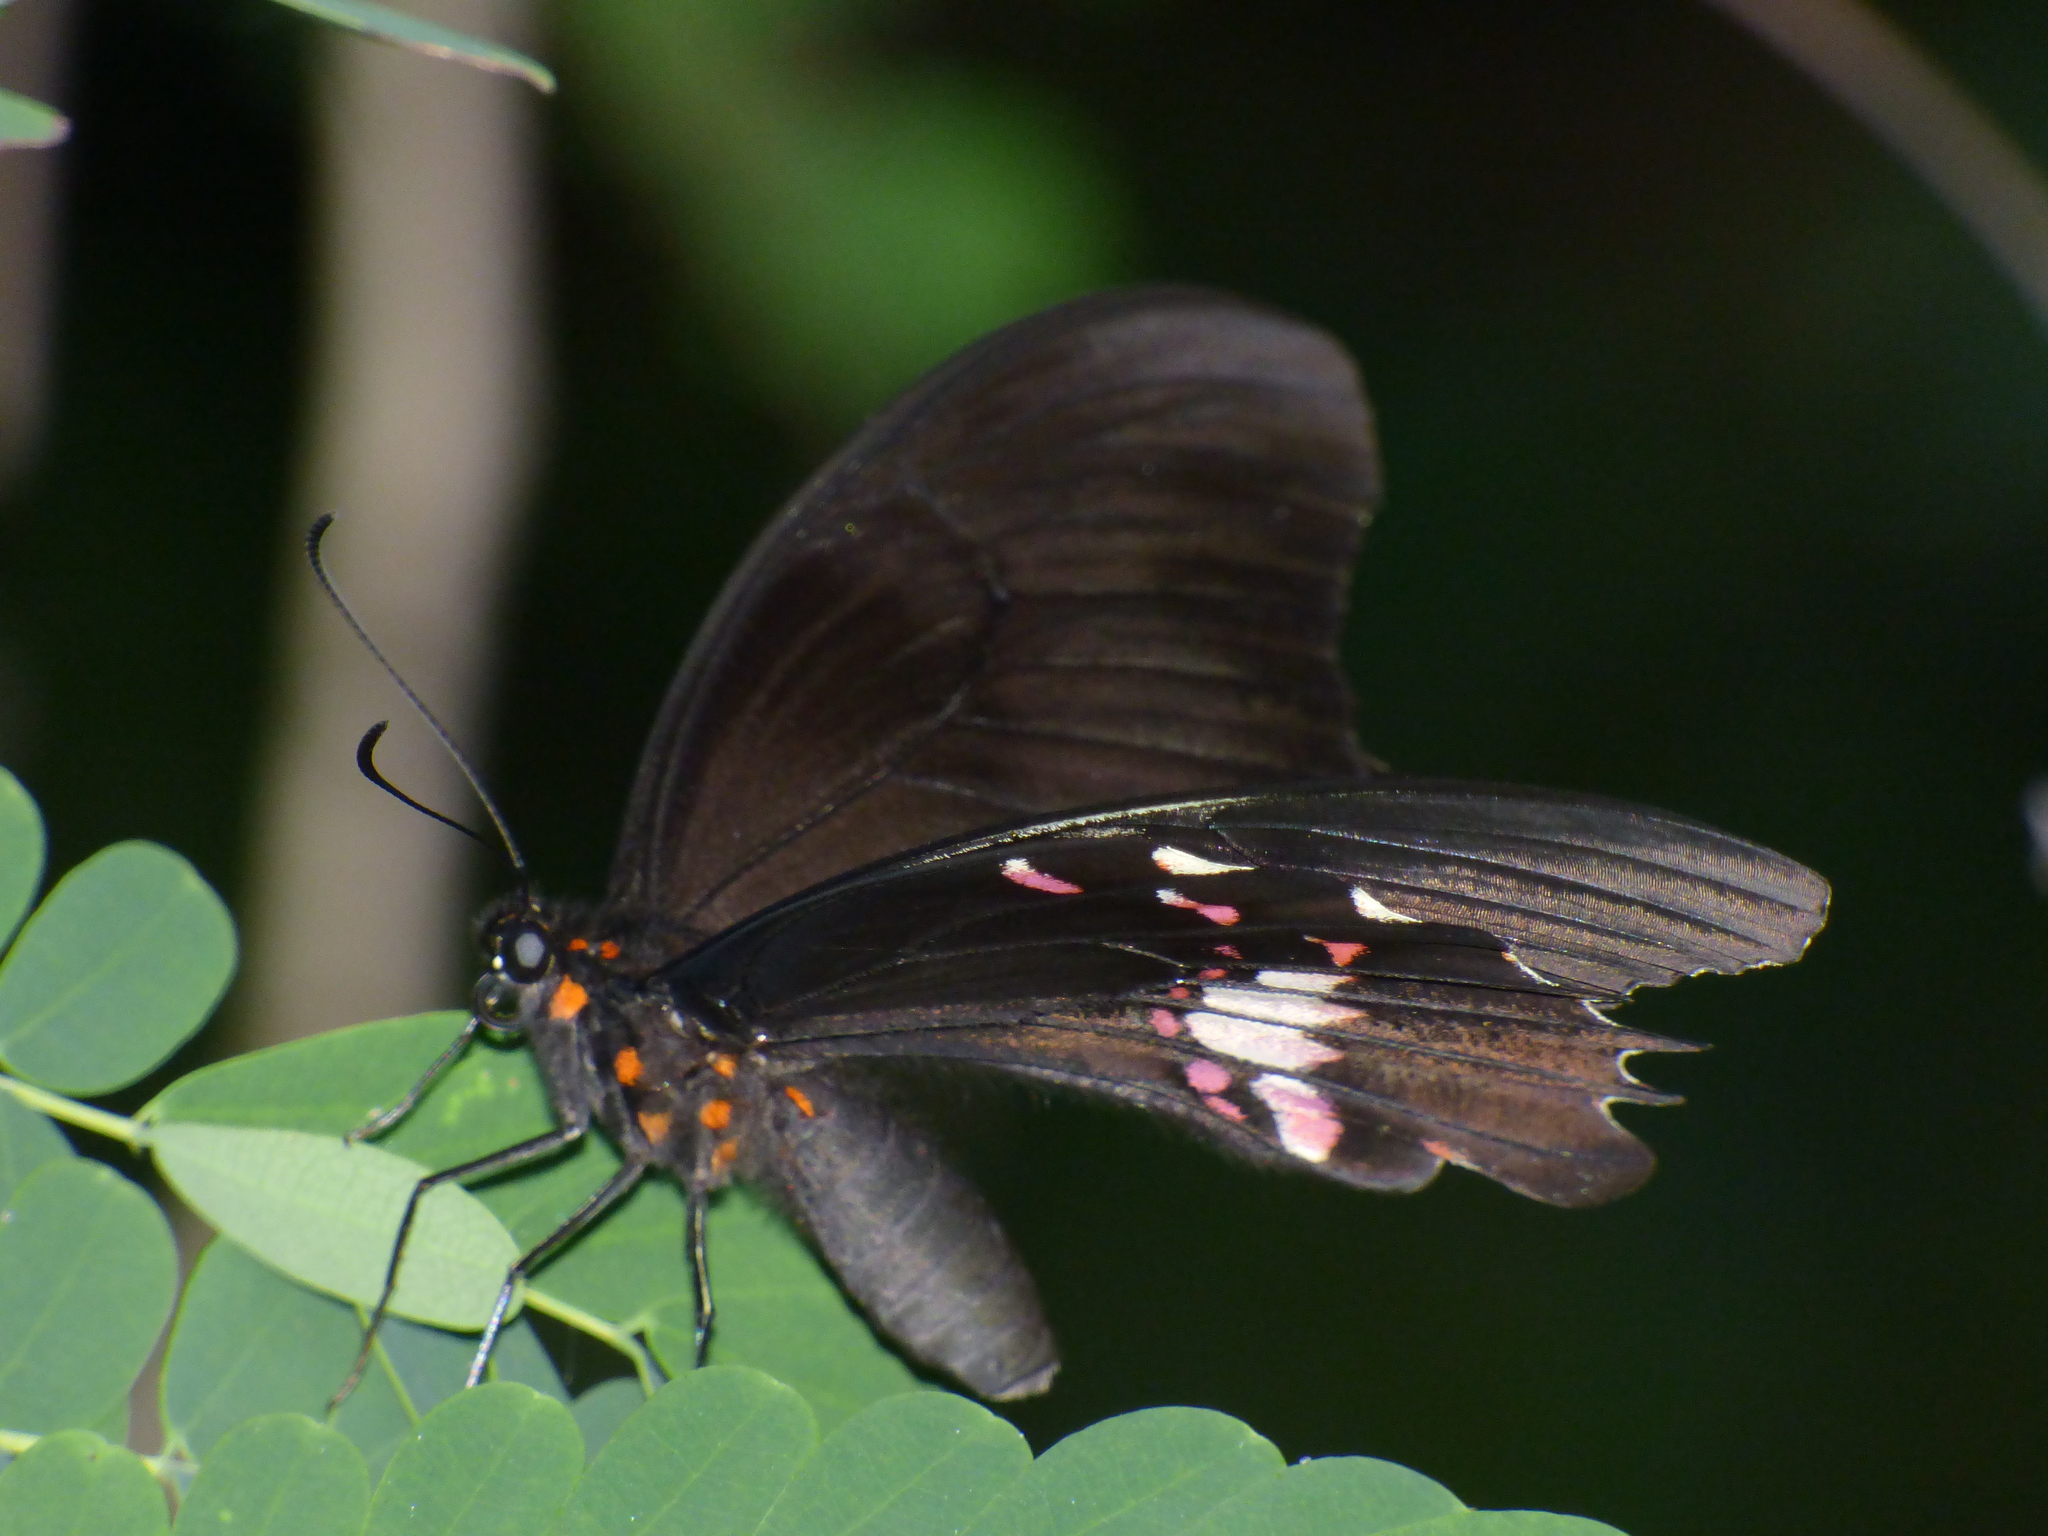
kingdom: Animalia
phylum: Arthropoda
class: Insecta
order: Lepidoptera
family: Papilionidae
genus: Papilio
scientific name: Papilio anchisiades
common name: Idaes swallowtail
